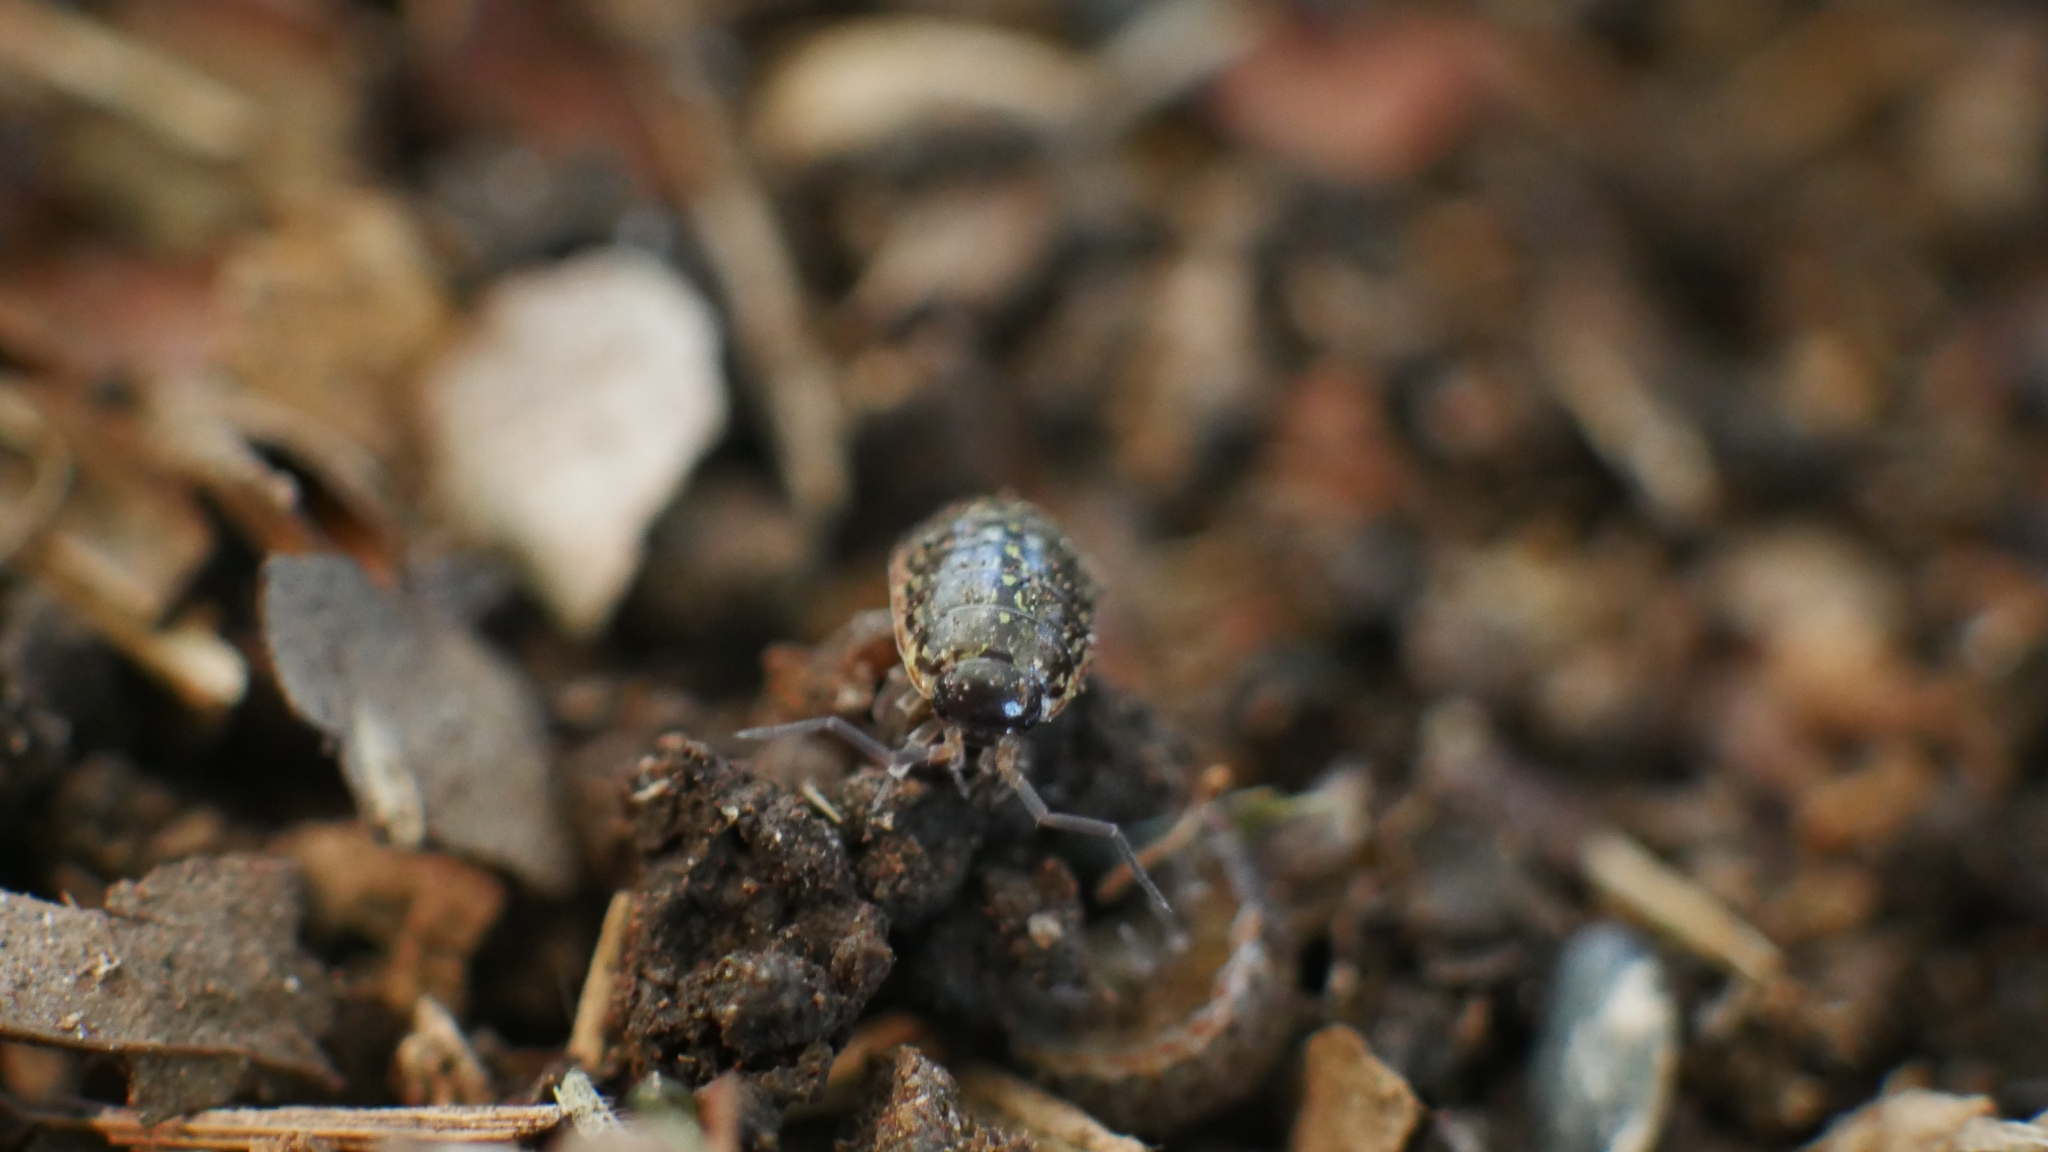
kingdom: Animalia
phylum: Arthropoda
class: Malacostraca
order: Isopoda
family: Philosciidae
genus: Philoscia
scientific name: Philoscia muscorum
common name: Common striped woodlouse
